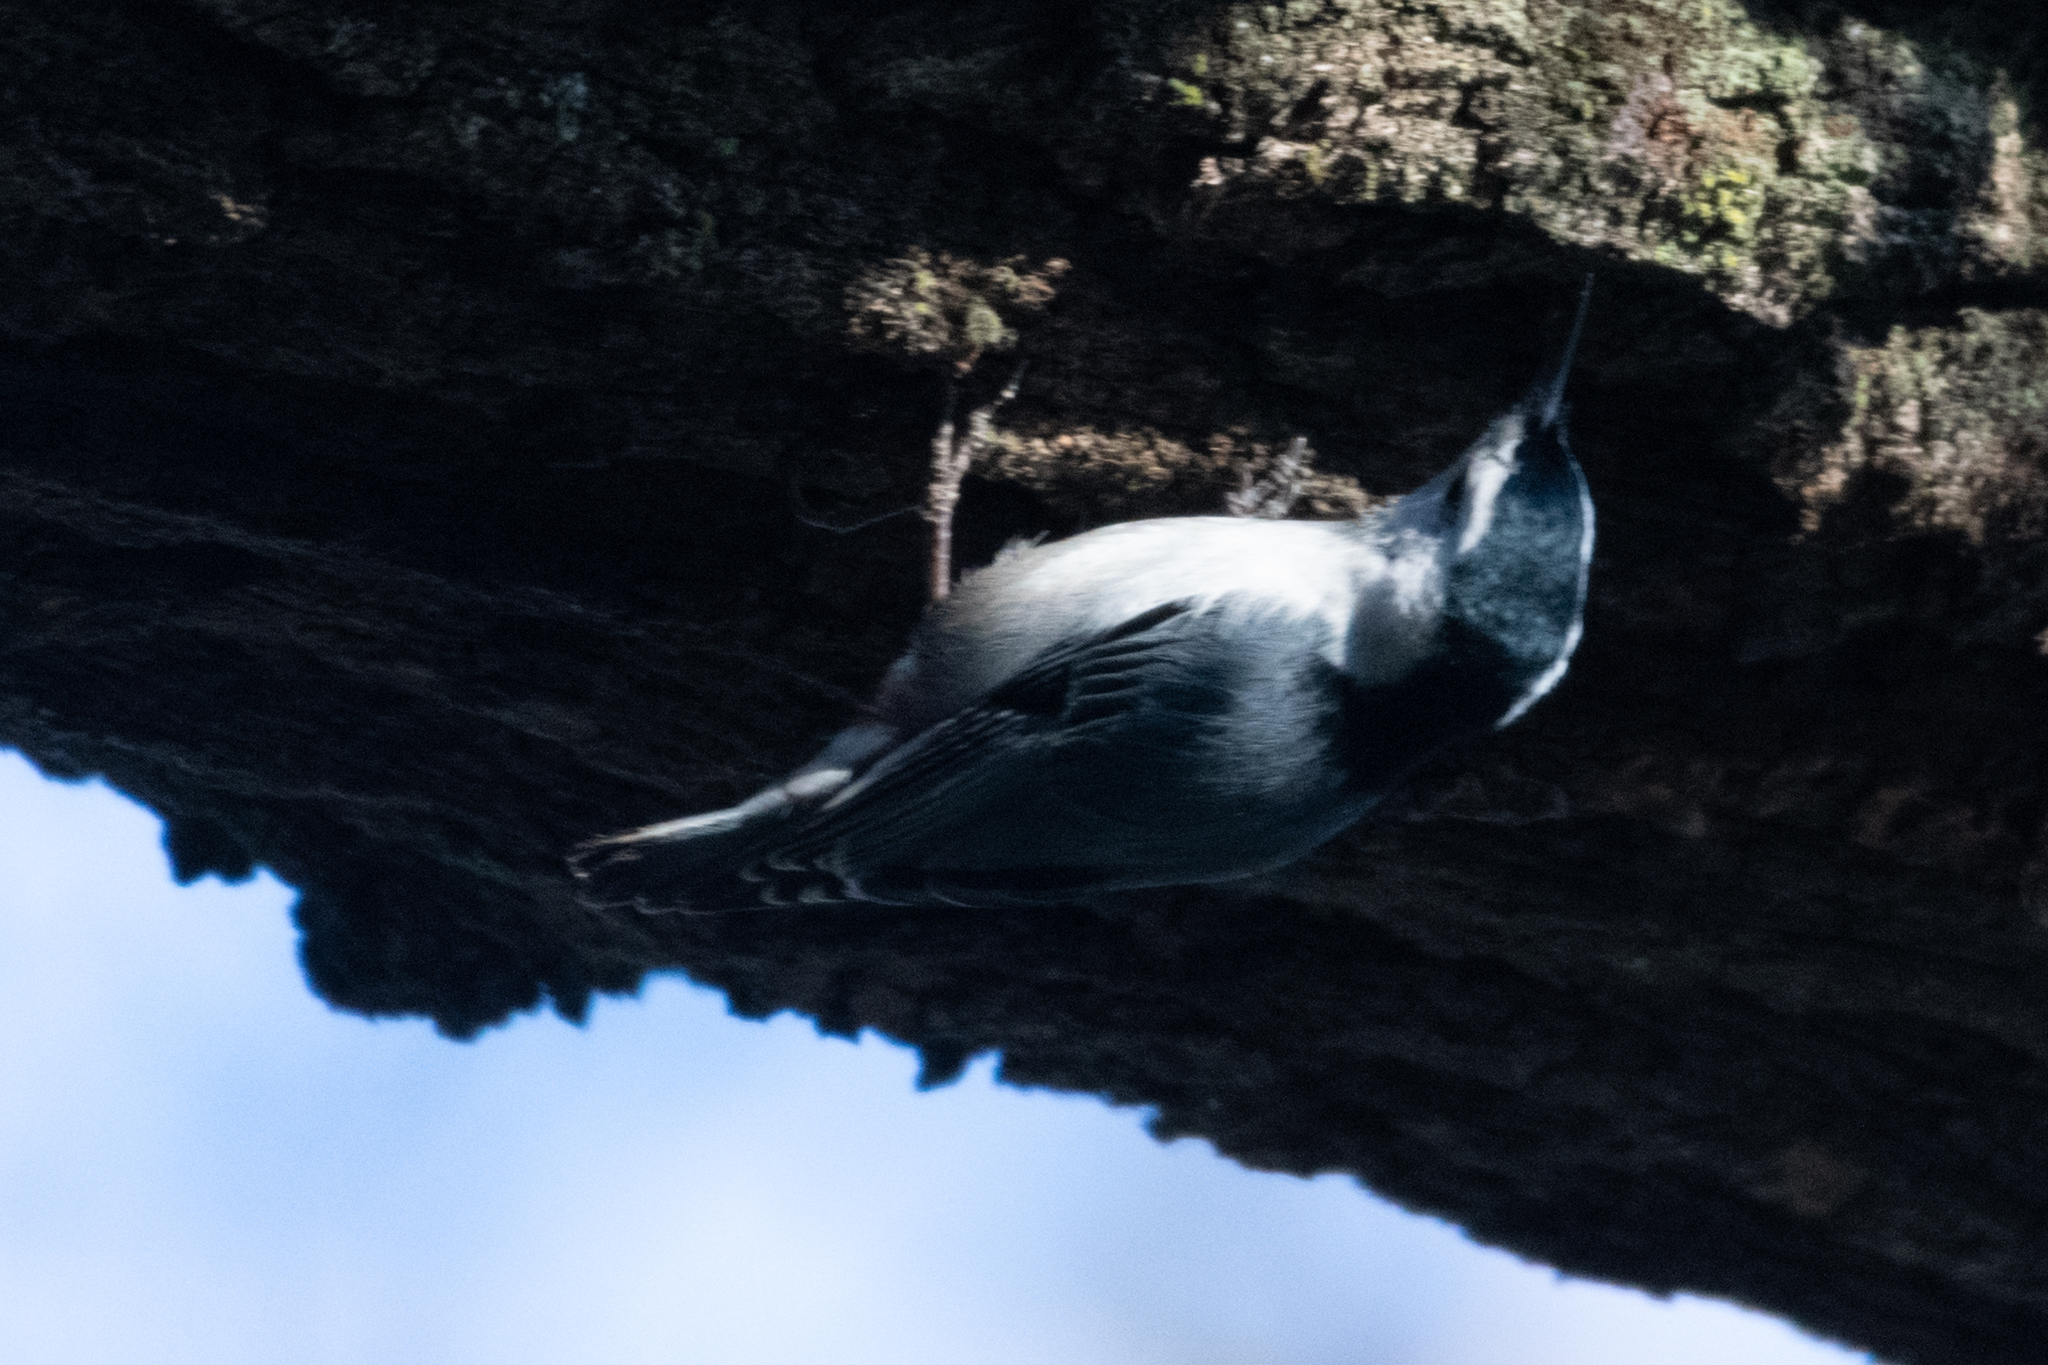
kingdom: Animalia
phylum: Chordata
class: Aves
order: Passeriformes
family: Sittidae
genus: Sitta
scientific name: Sitta carolinensis
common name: White-breasted nuthatch
